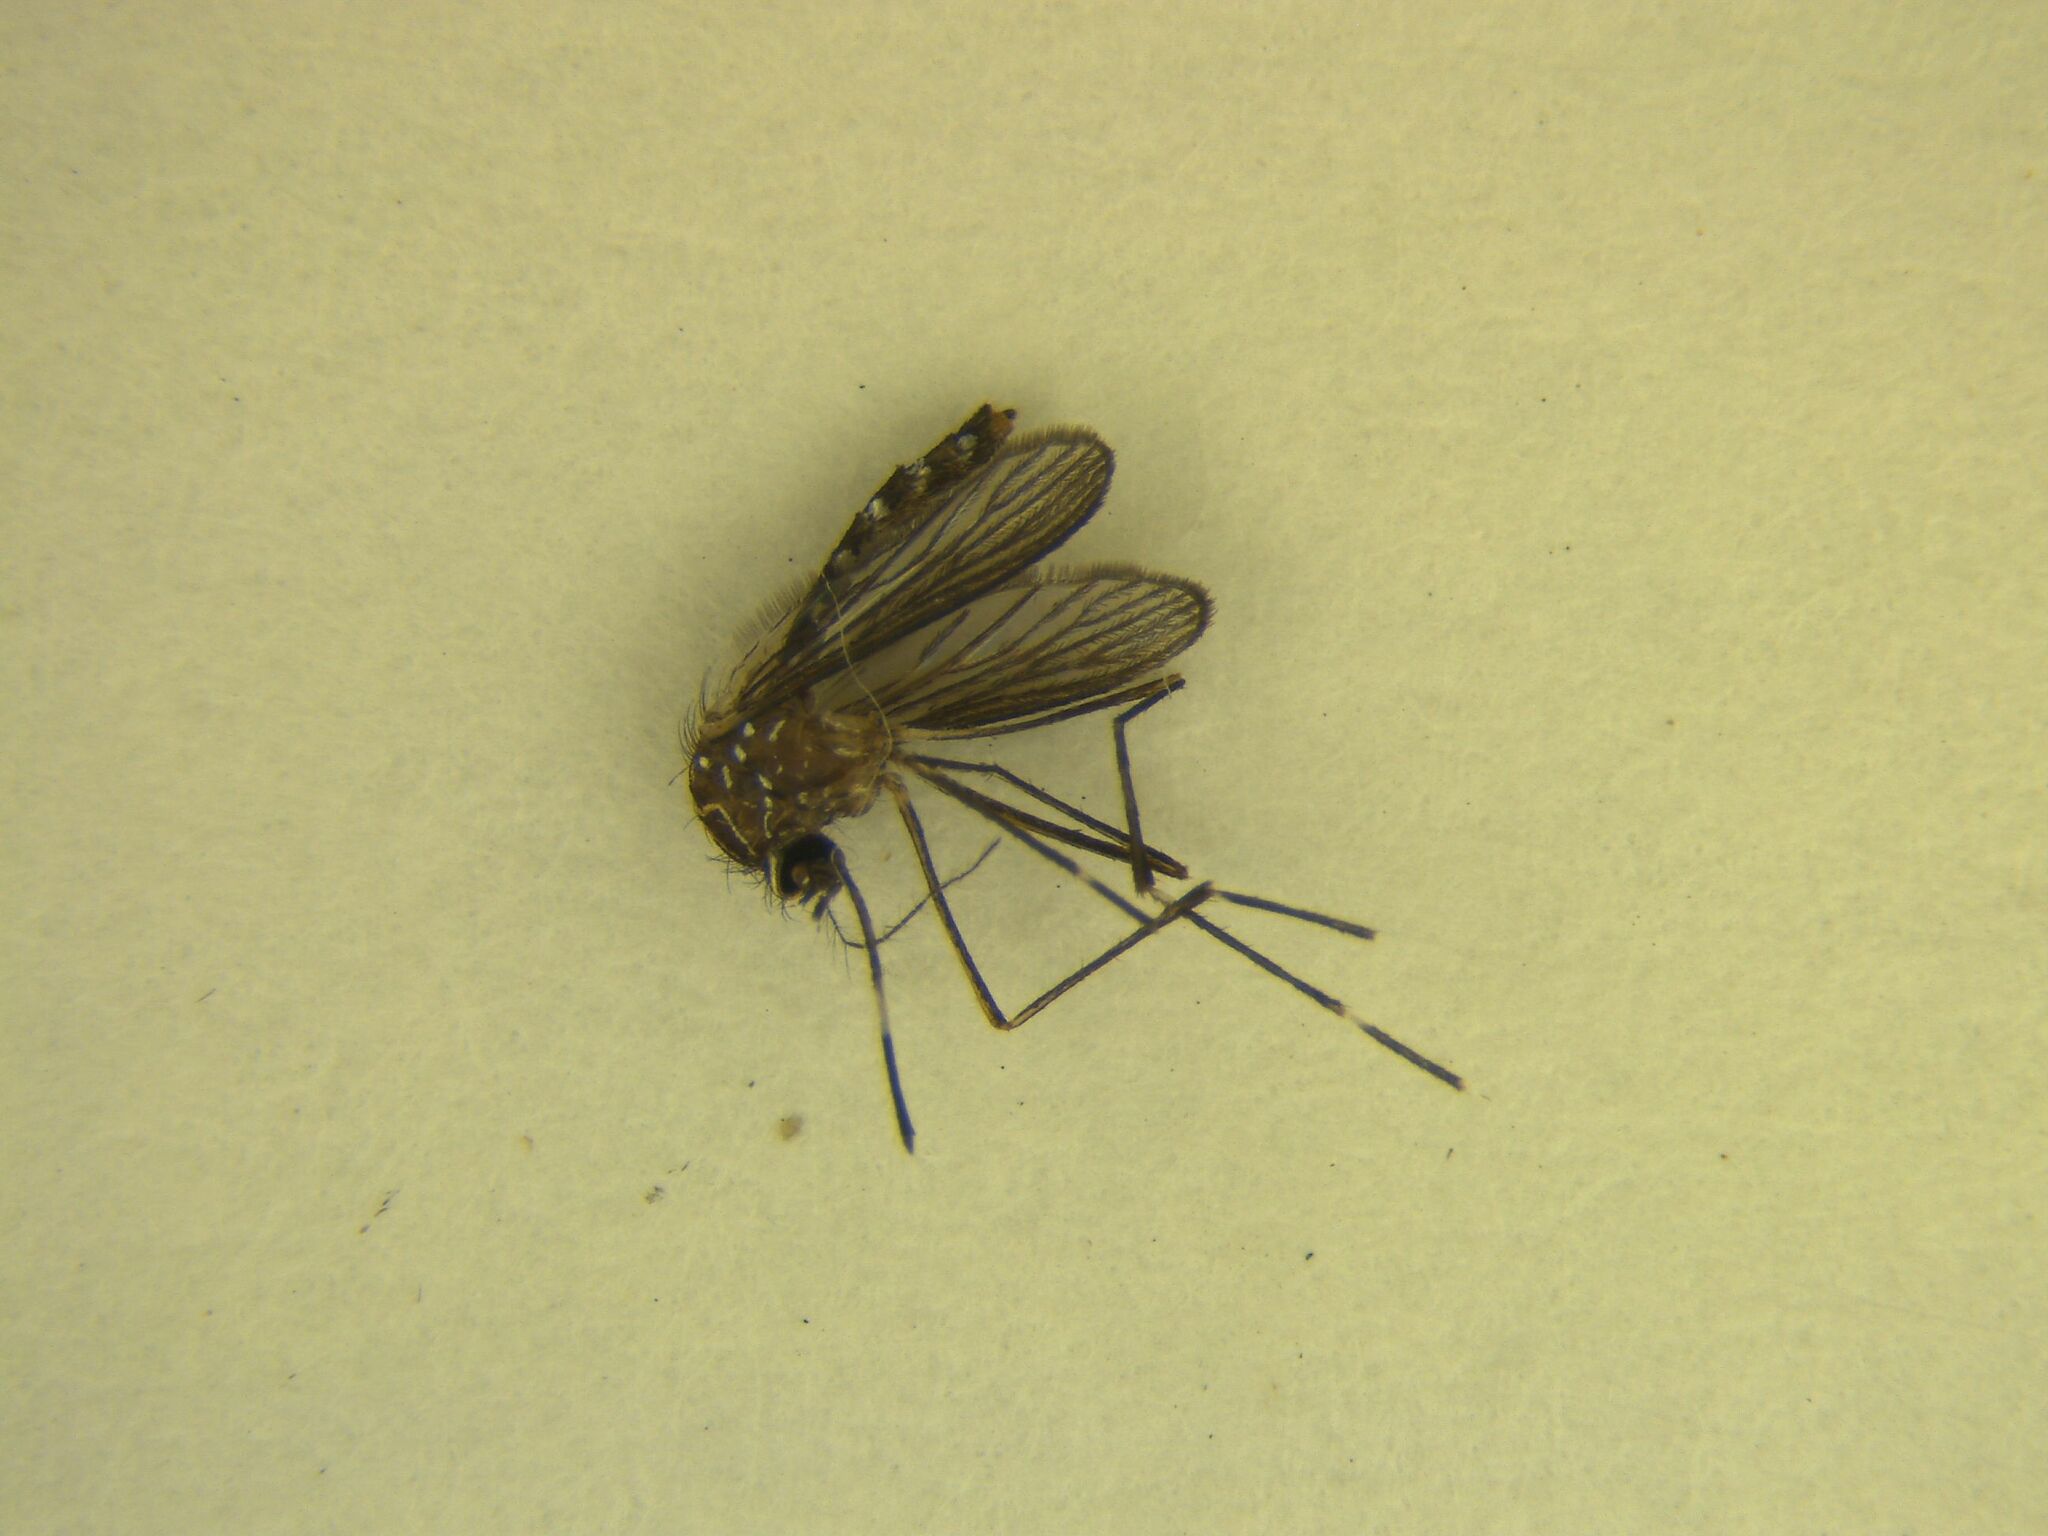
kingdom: Animalia
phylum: Arthropoda
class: Insecta
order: Diptera
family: Culicidae
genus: Aedes
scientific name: Aedes notoscriptus
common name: Australian backyard mosquito
